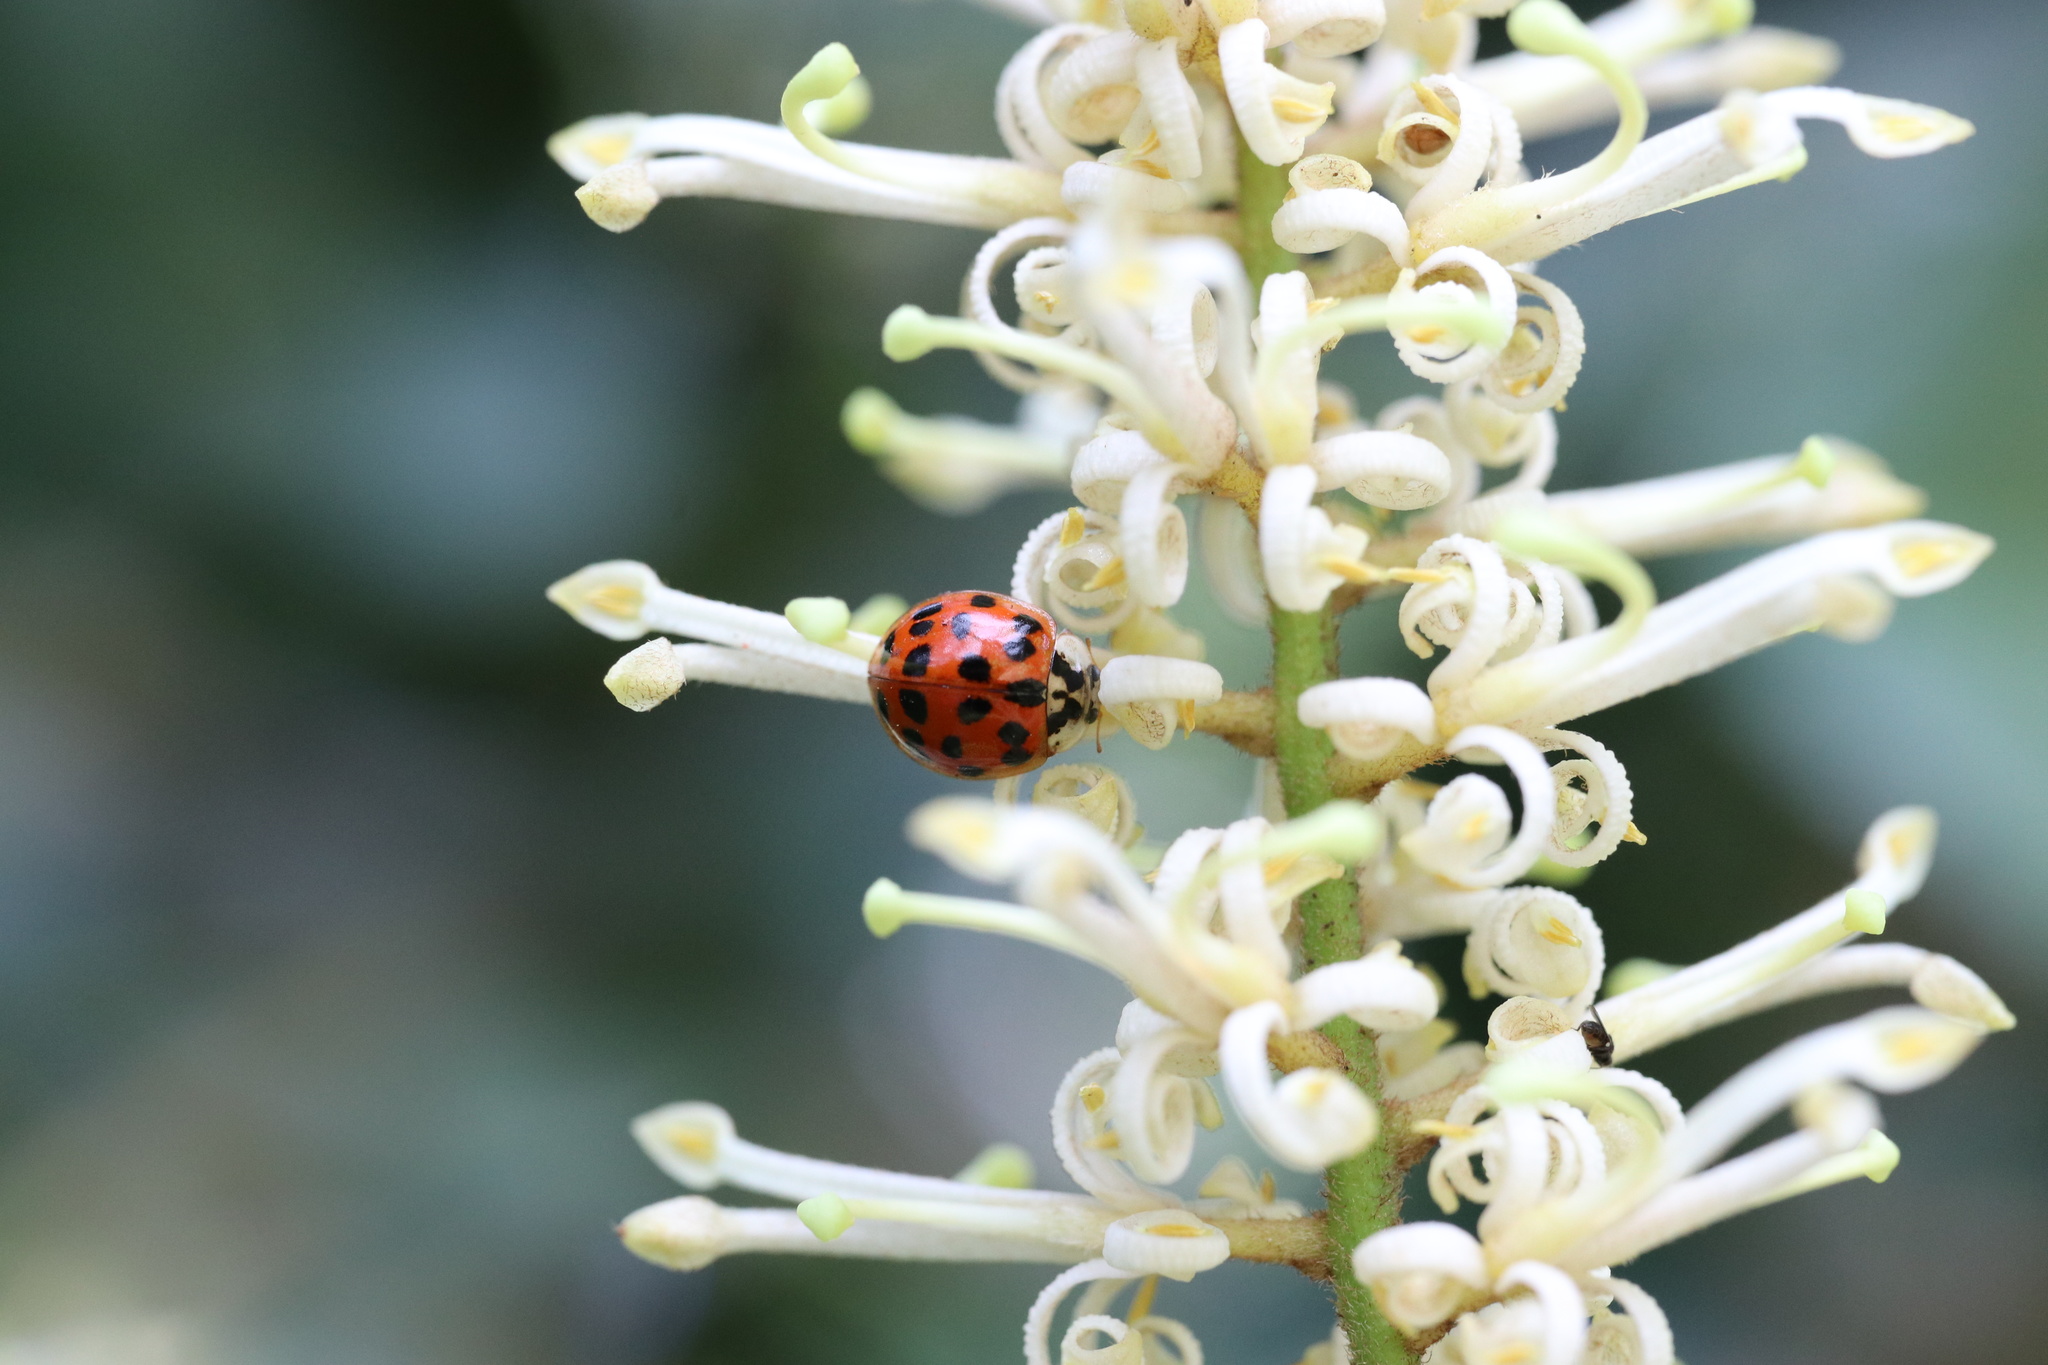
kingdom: Animalia
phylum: Arthropoda
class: Insecta
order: Coleoptera
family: Coccinellidae
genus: Harmonia
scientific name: Harmonia axyridis
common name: Harlequin ladybird
